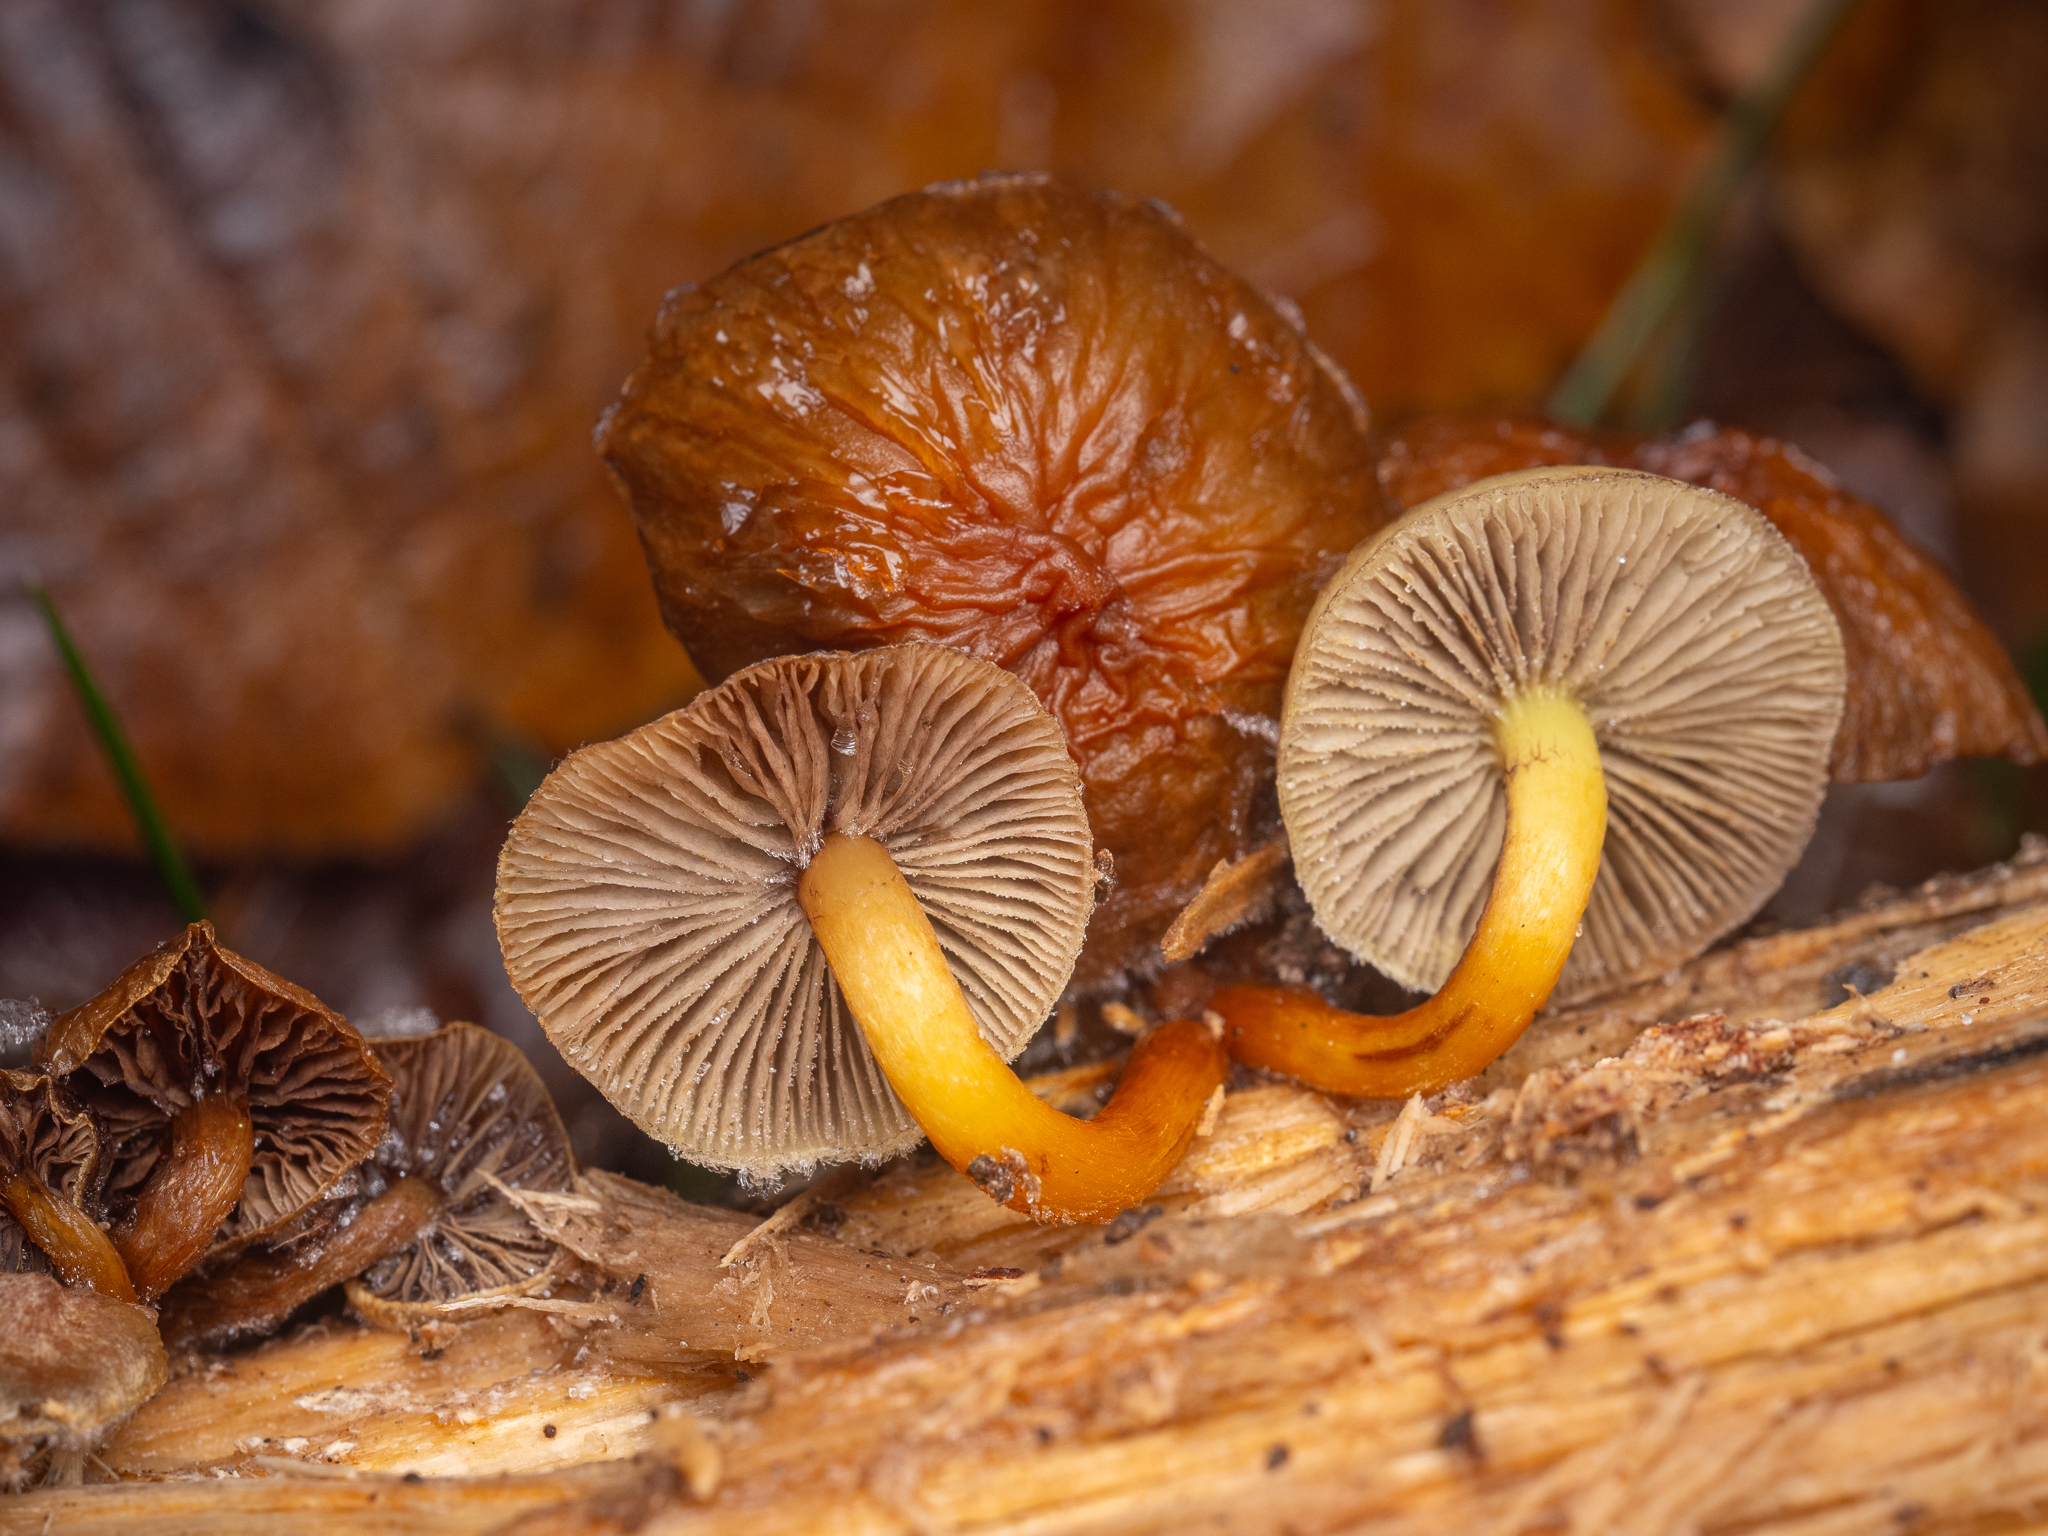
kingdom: Fungi
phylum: Basidiomycota
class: Agaricomycetes
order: Agaricales
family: Strophariaceae
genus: Hypholoma
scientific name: Hypholoma fasciculare
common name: Sulphur tuft
